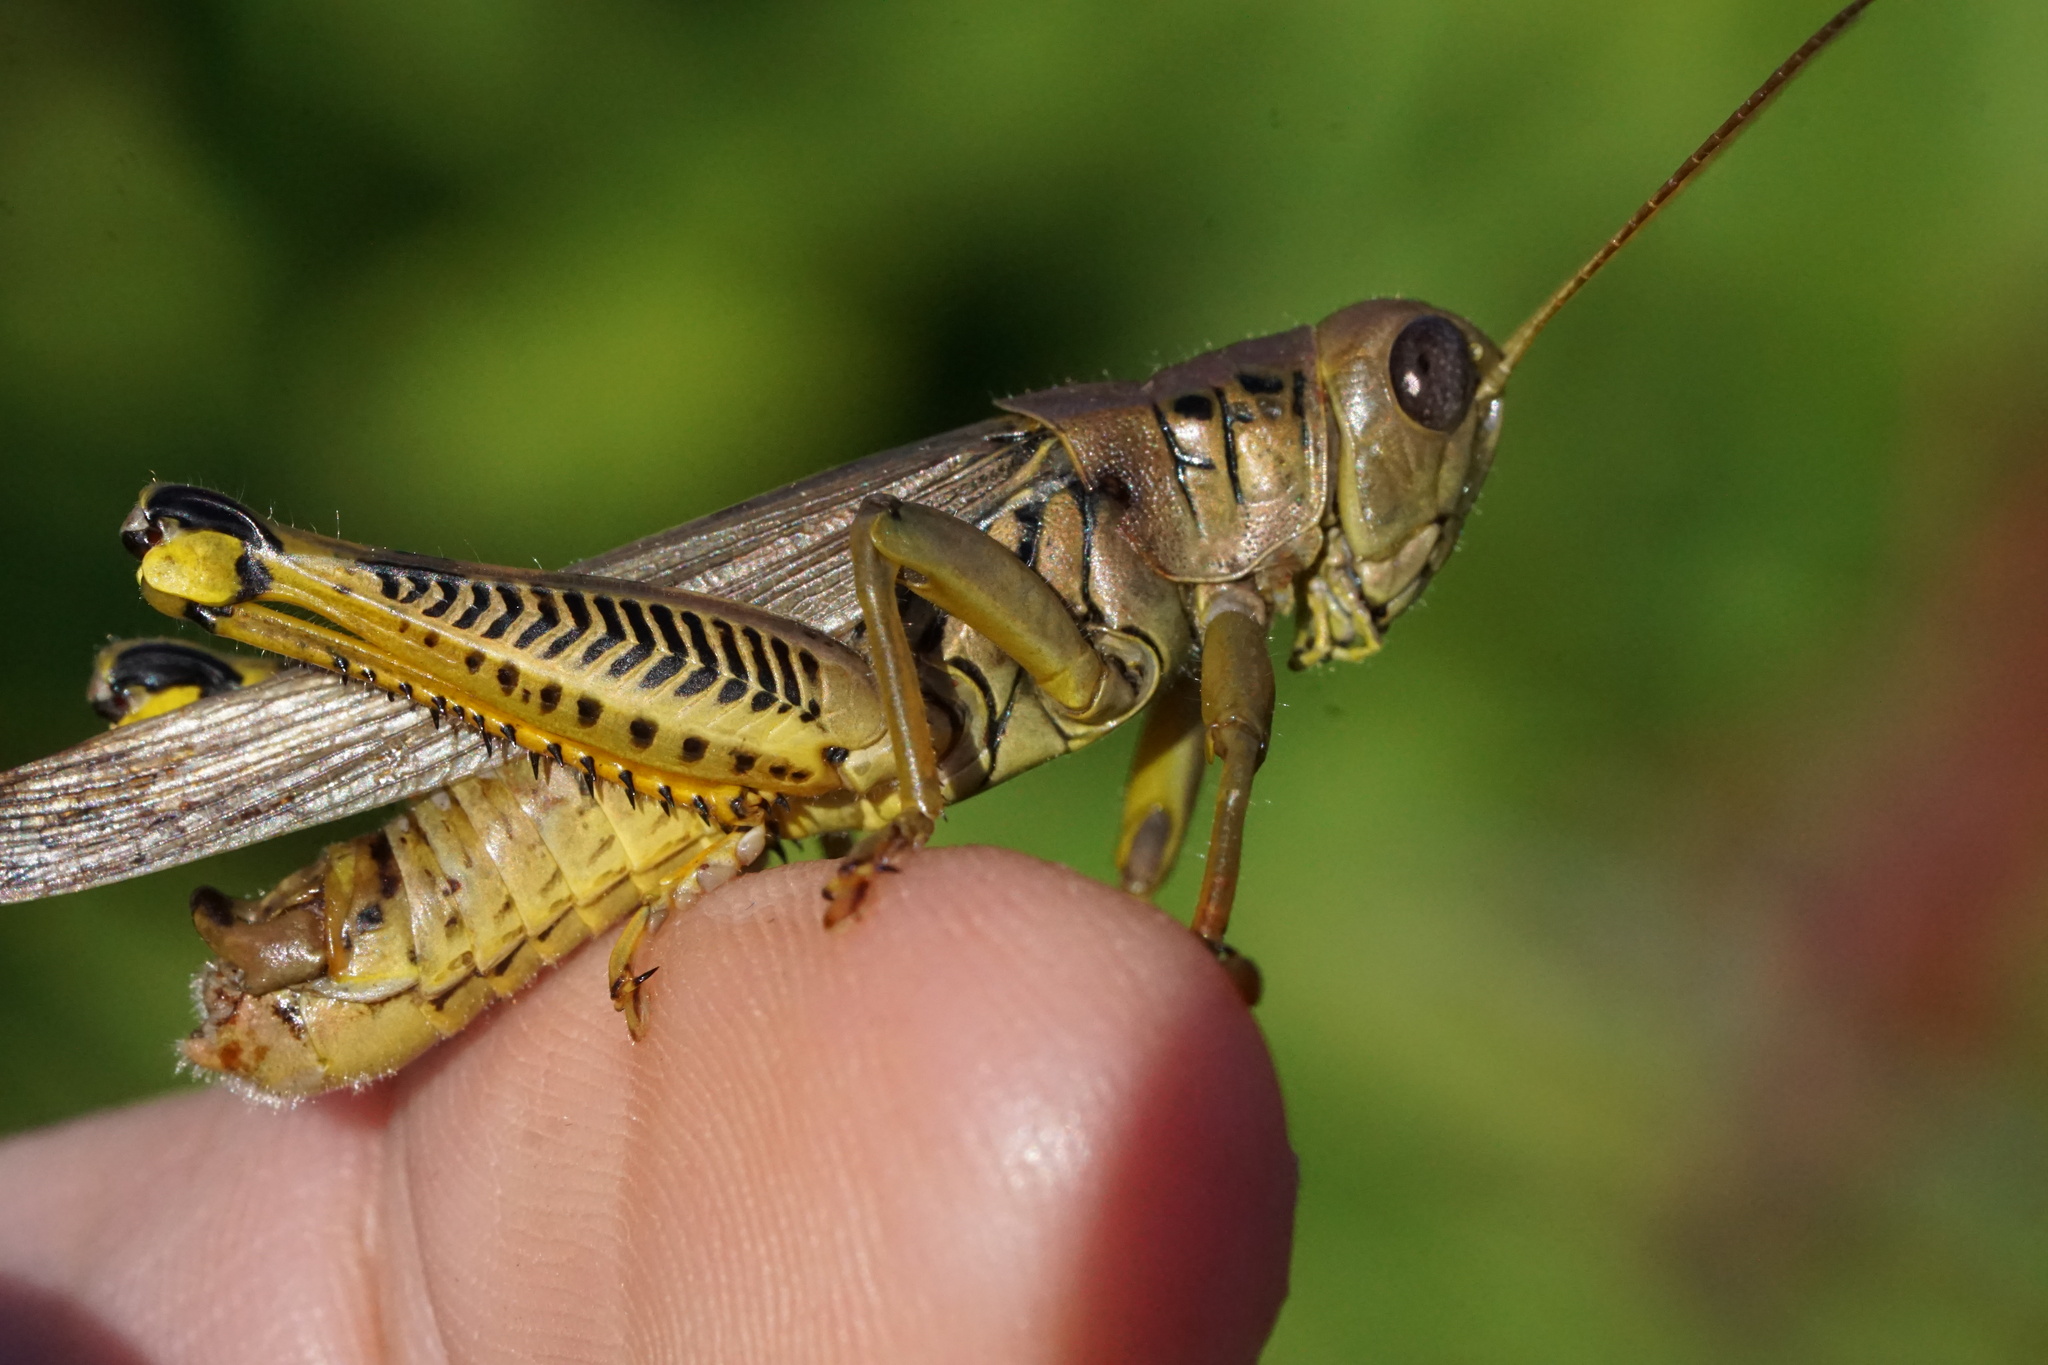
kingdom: Animalia
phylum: Arthropoda
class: Insecta
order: Orthoptera
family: Acrididae
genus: Melanoplus
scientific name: Melanoplus differentialis
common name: Differential grasshopper
